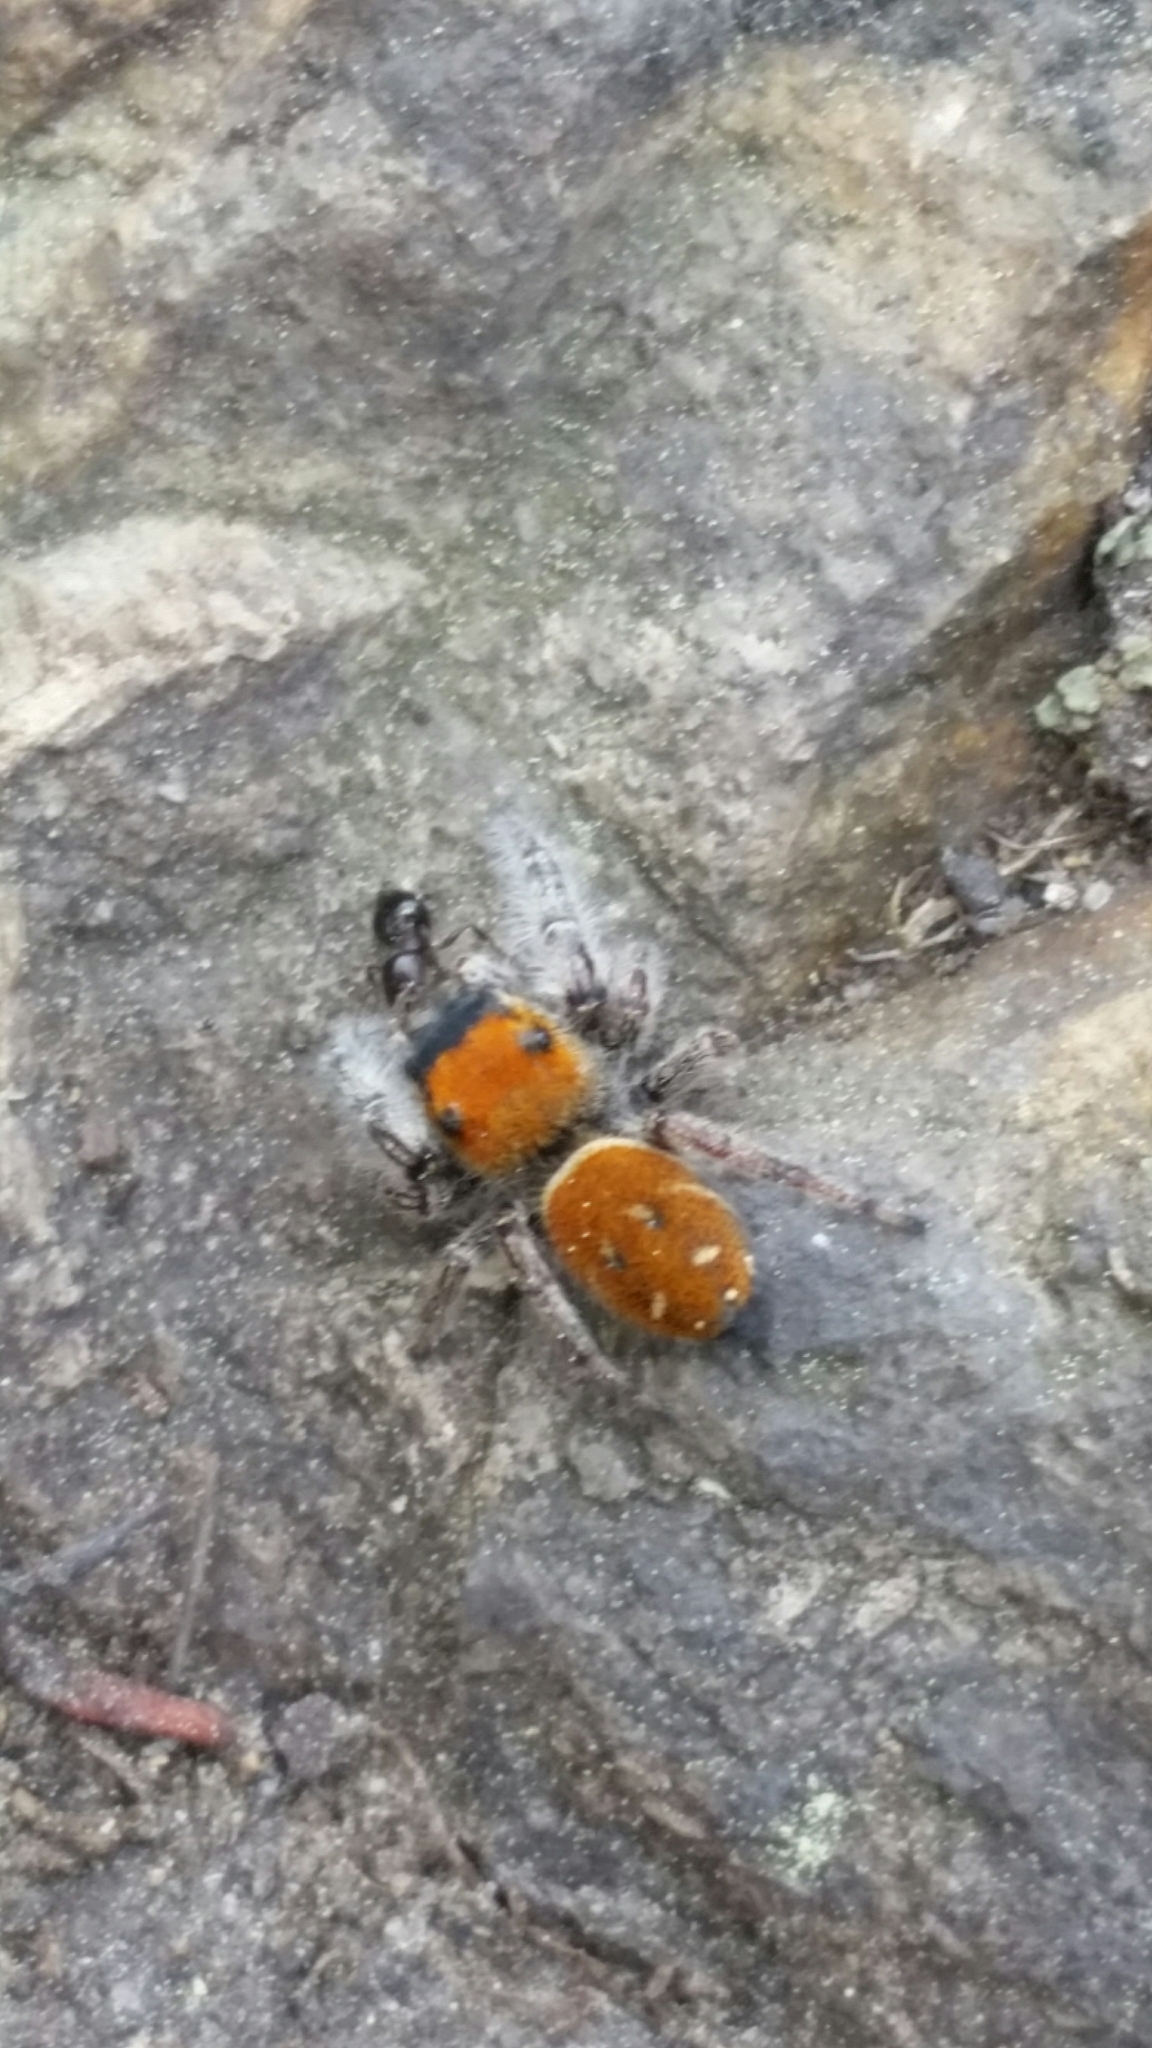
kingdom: Animalia
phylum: Arthropoda
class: Arachnida
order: Araneae
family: Salticidae
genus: Phidippus
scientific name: Phidippus whitmani
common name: Whitman's jumping spider
